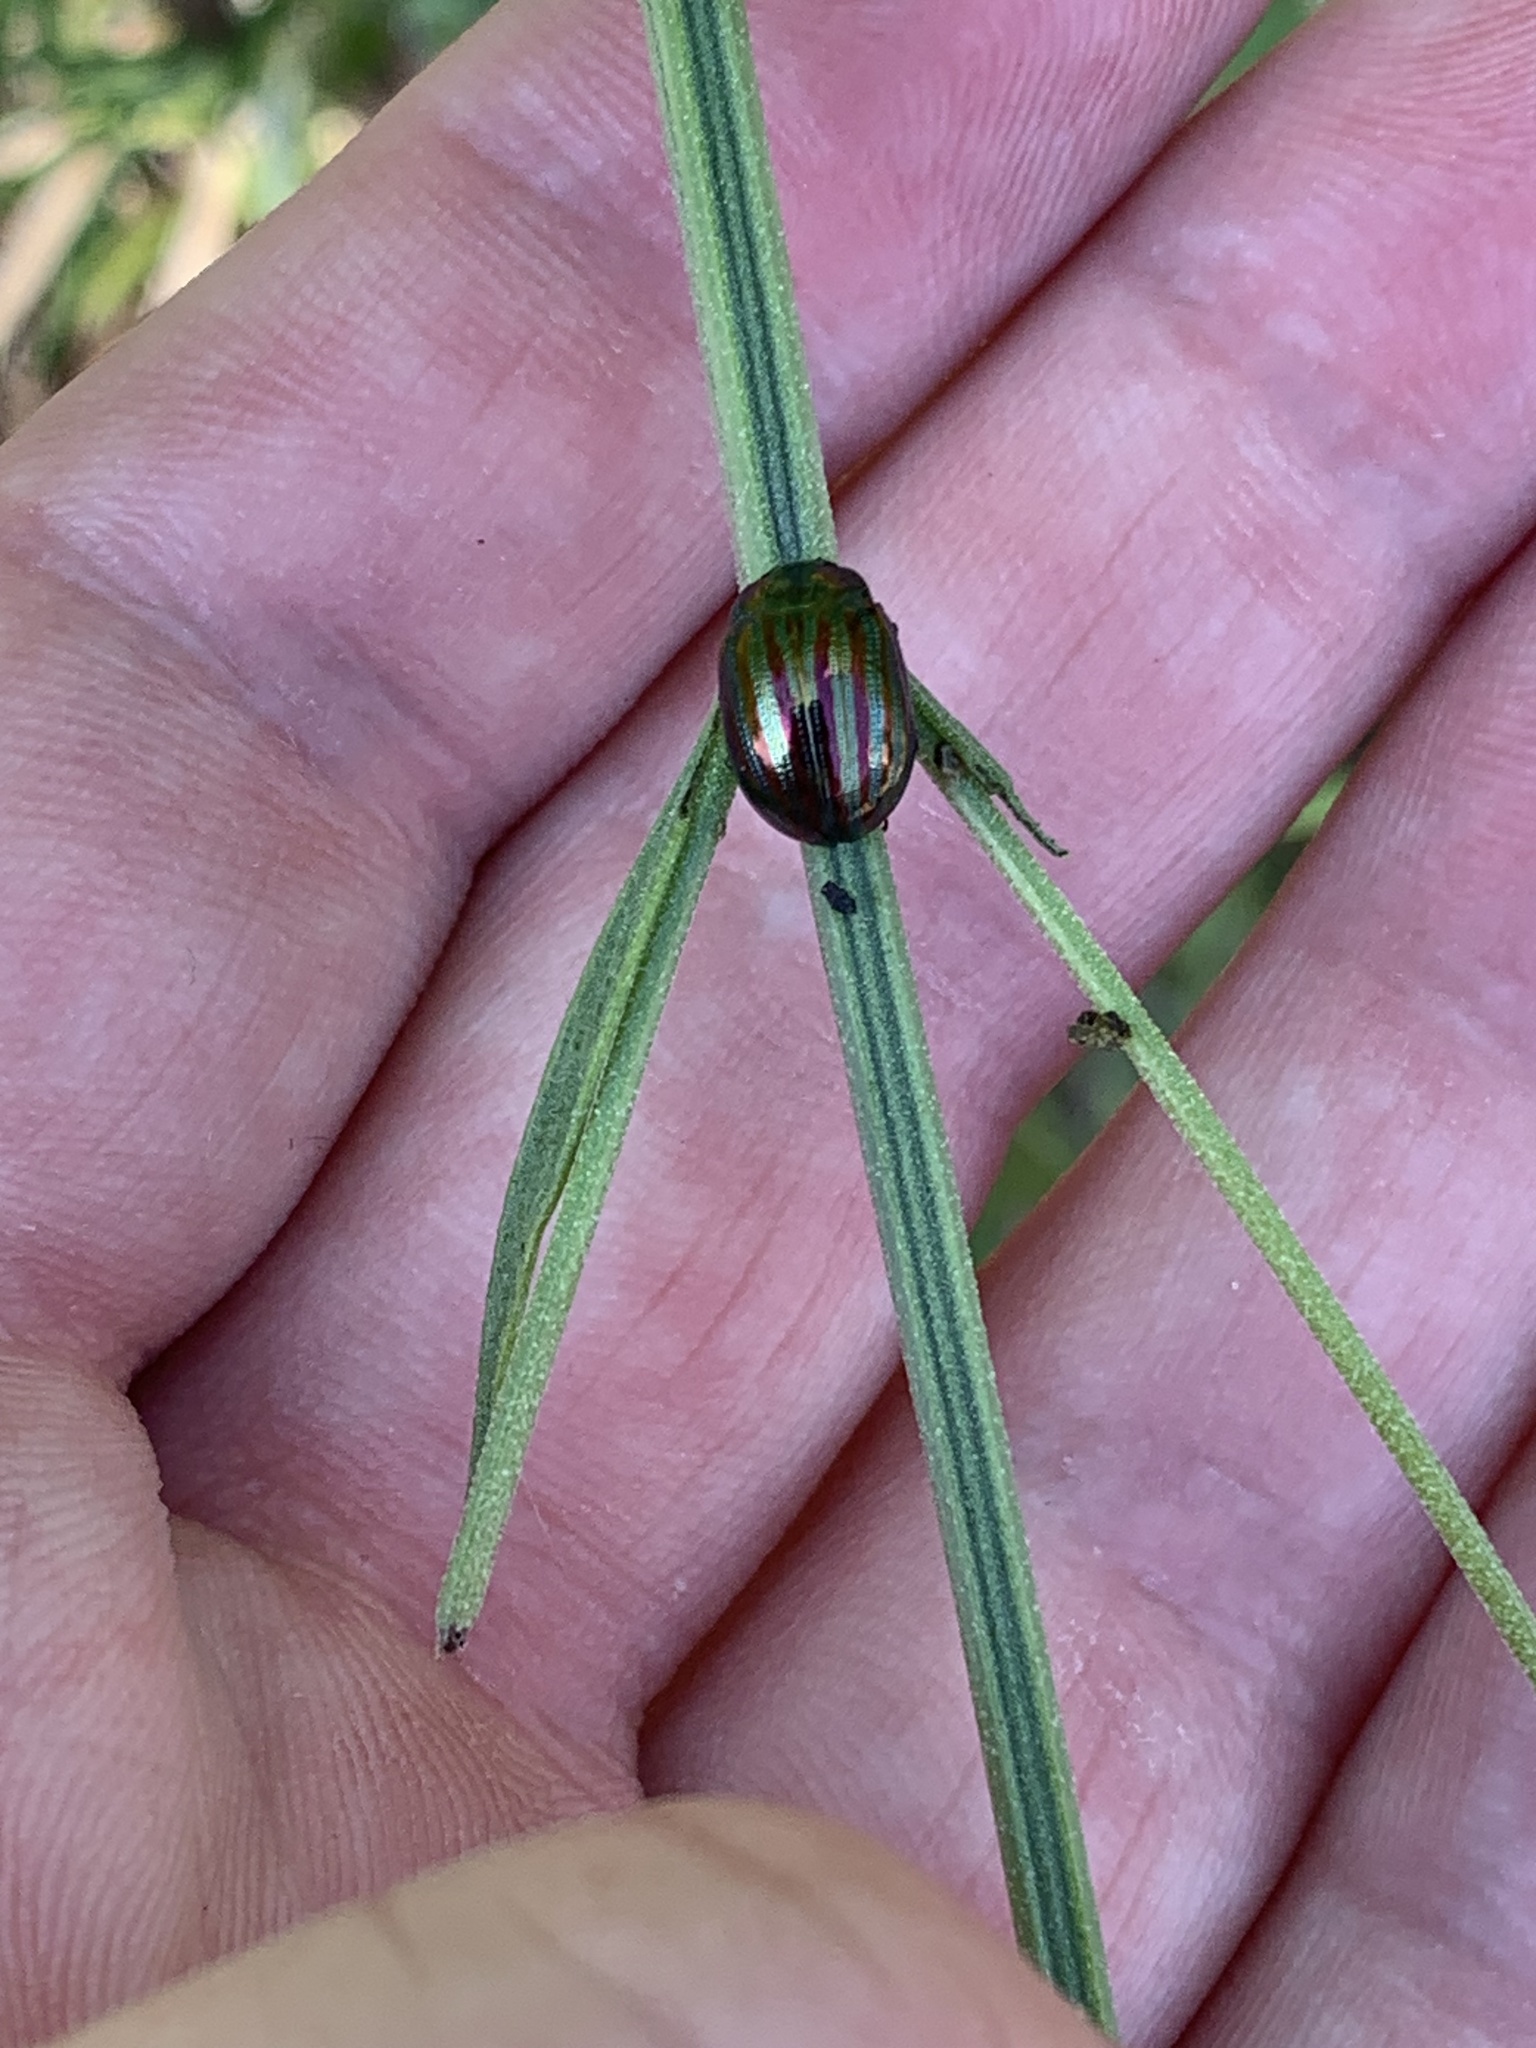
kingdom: Animalia
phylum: Arthropoda
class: Insecta
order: Coleoptera
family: Chrysomelidae
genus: Chrysolina
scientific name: Chrysolina americana
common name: Rosemary beetle
